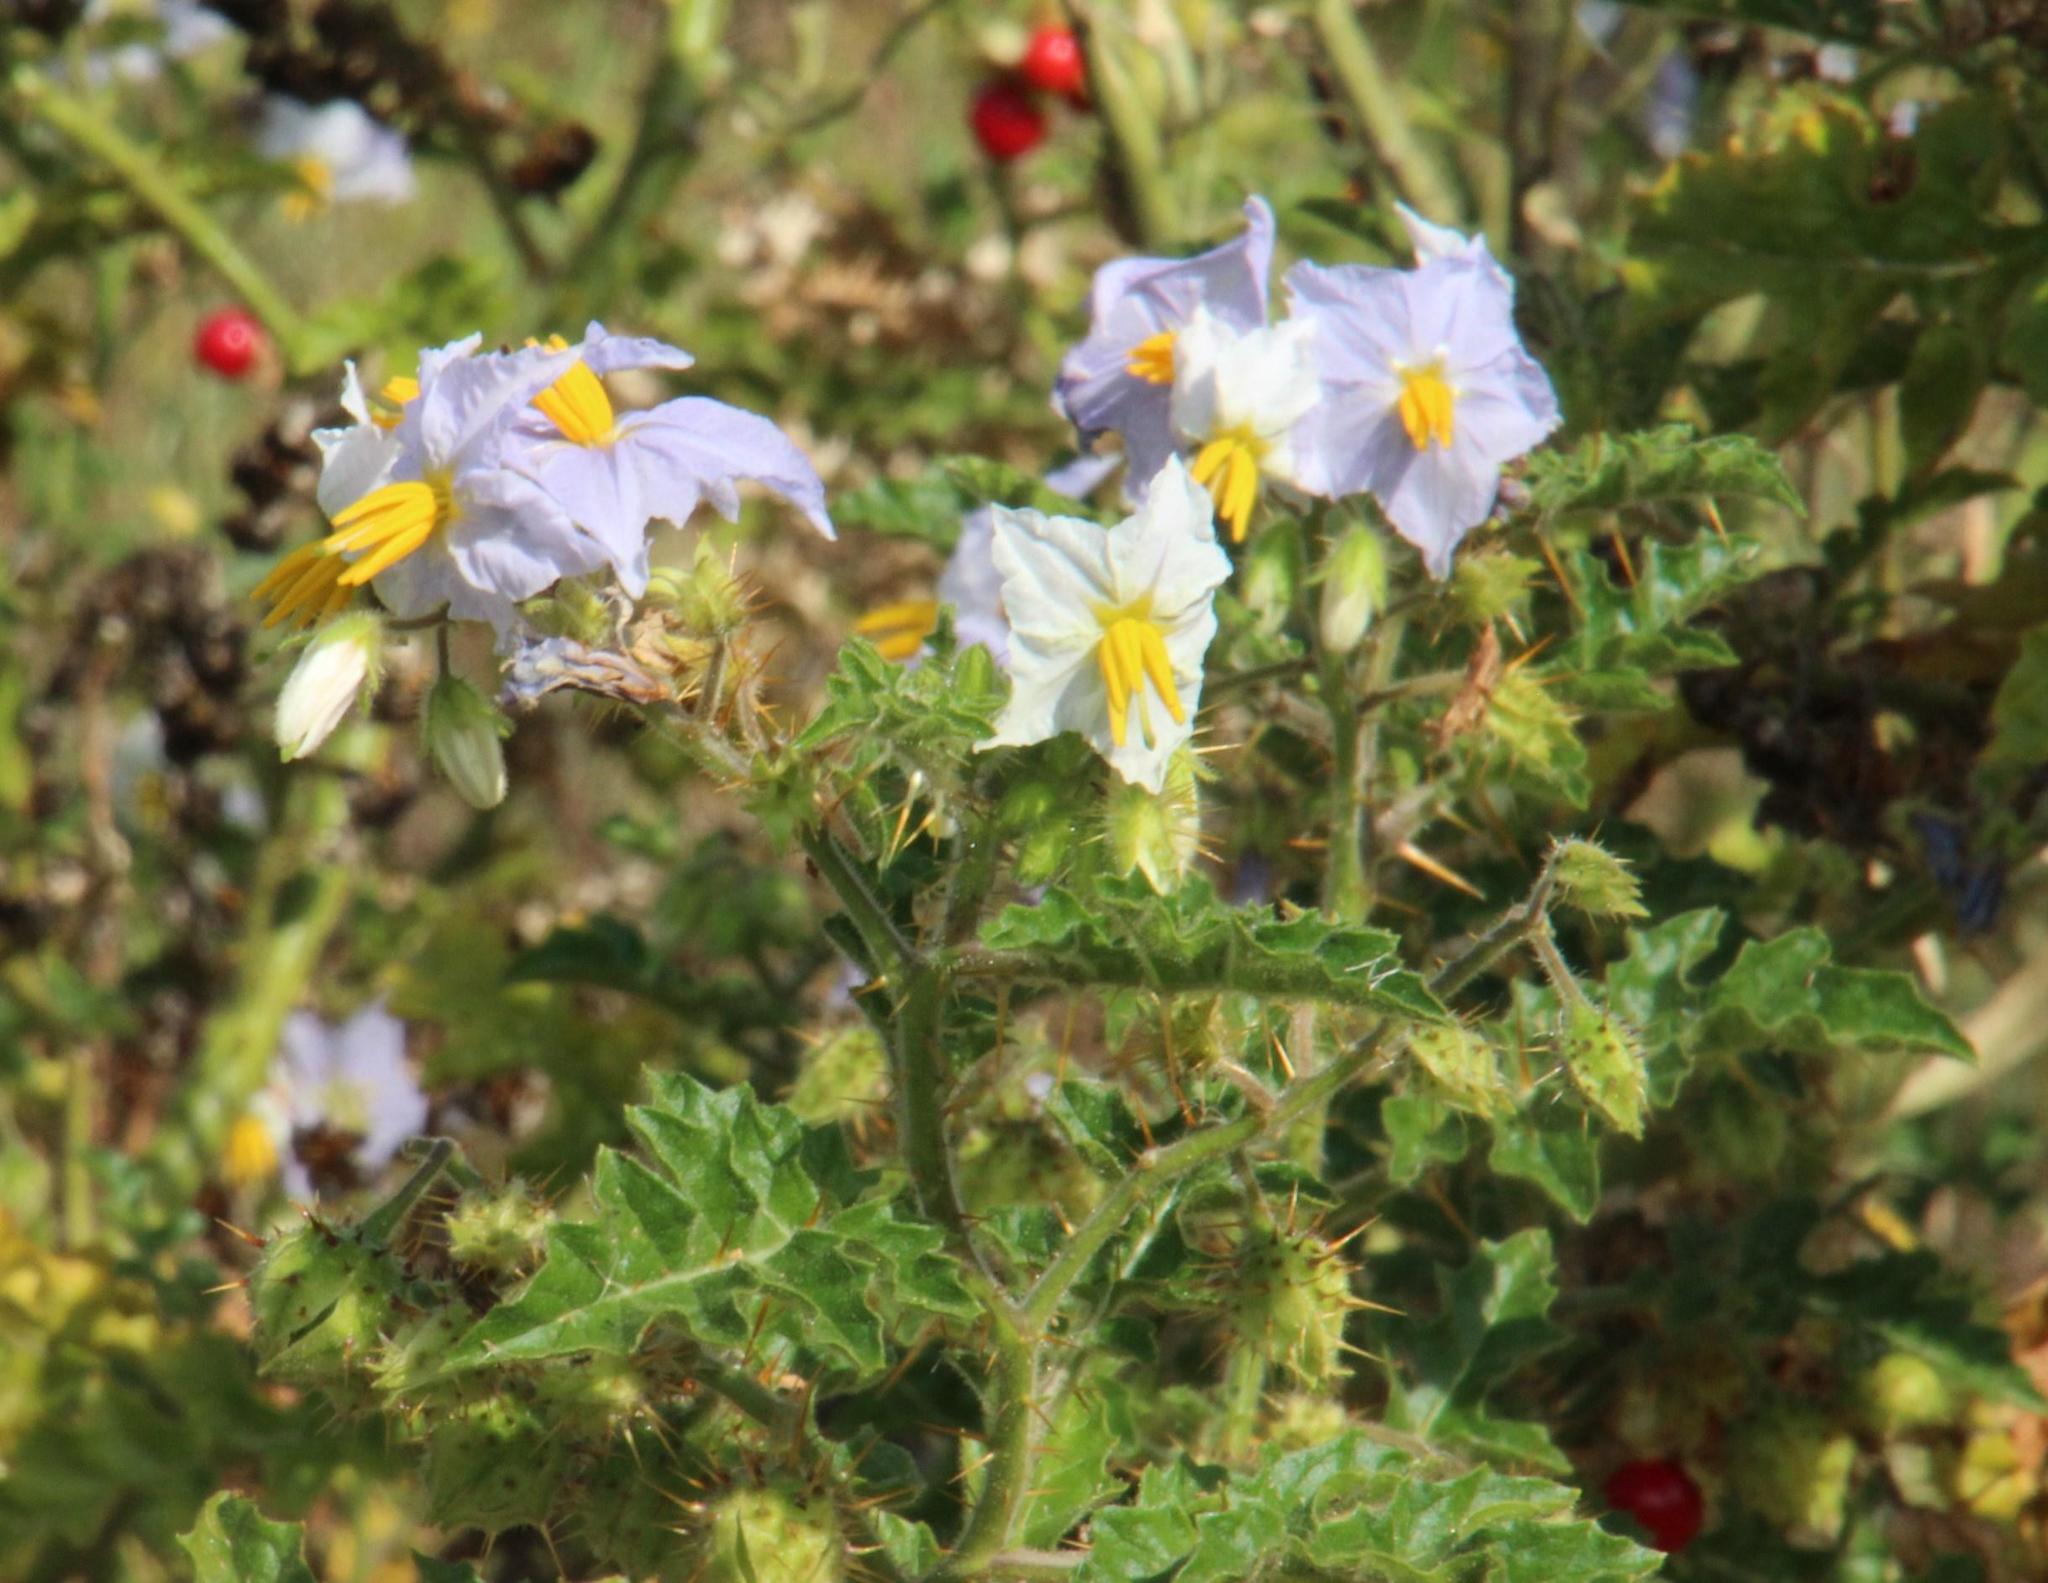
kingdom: Plantae
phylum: Tracheophyta
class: Magnoliopsida
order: Solanales
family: Solanaceae
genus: Solanum
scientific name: Solanum sisymbriifolium
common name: Red buffalo-bur
